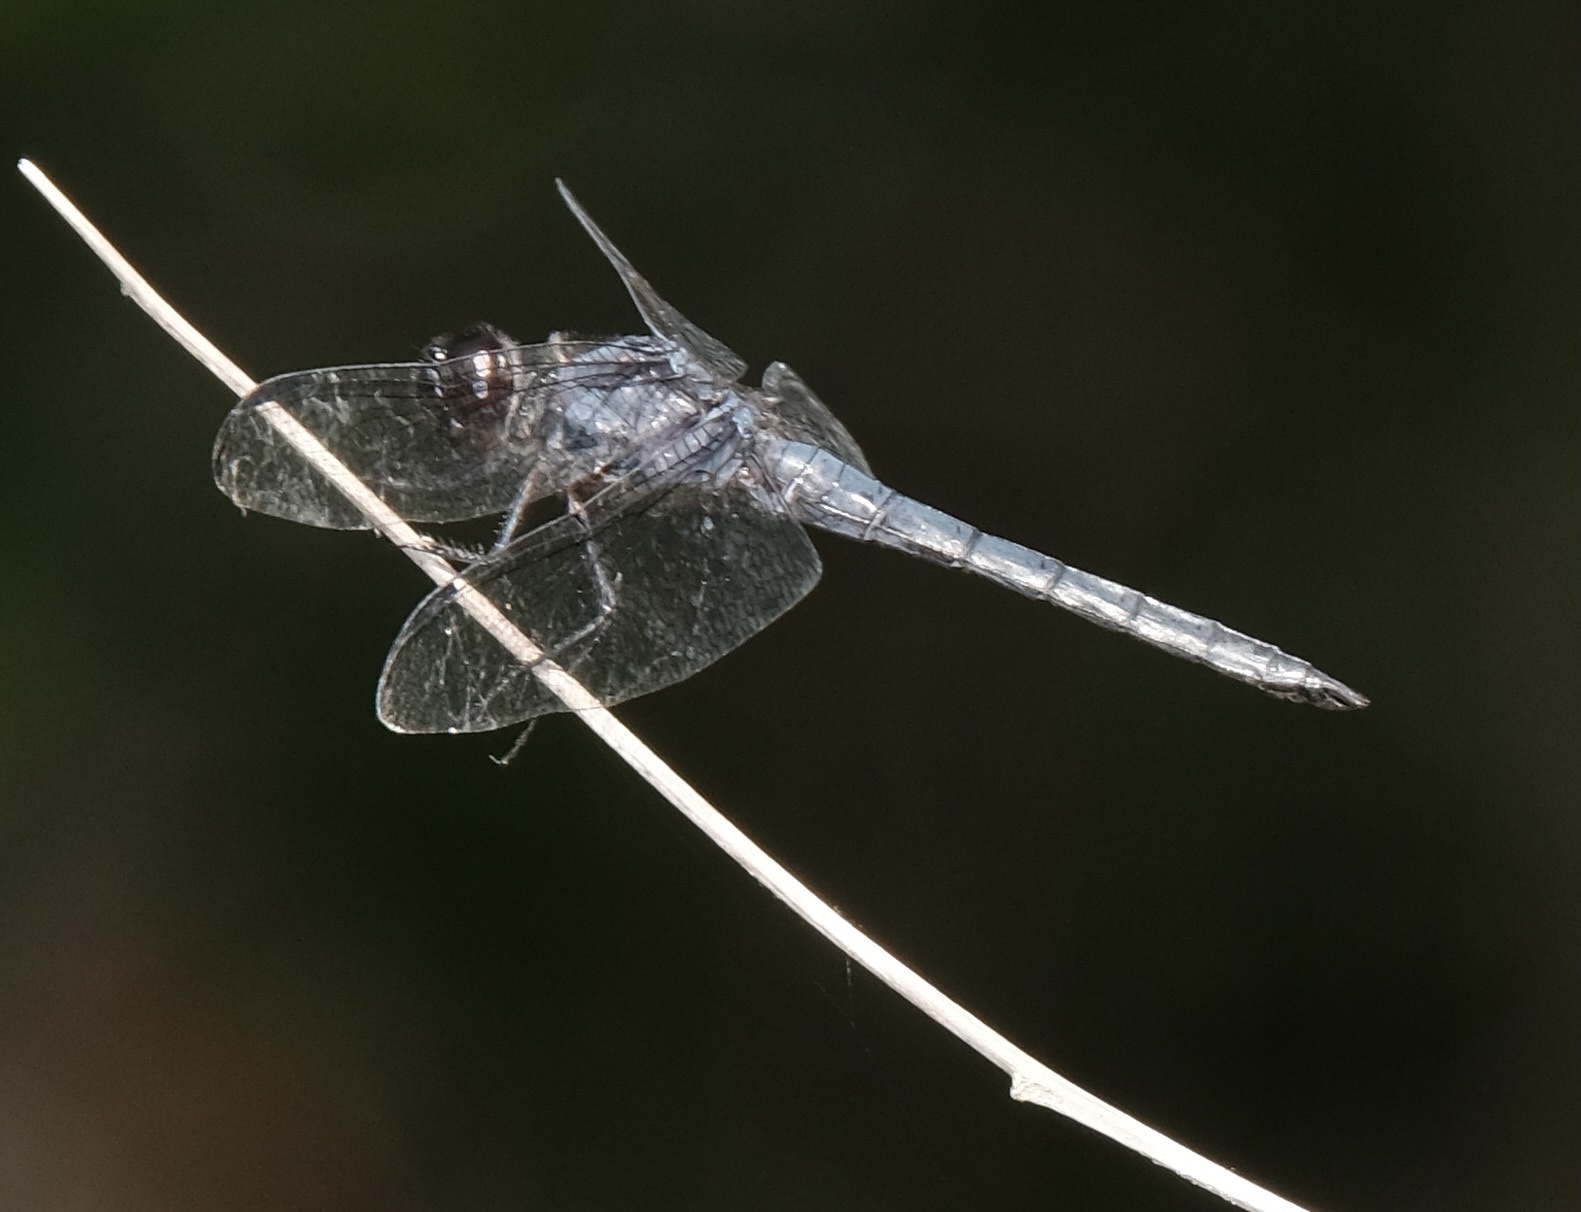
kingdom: Animalia
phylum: Arthropoda
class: Insecta
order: Odonata
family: Libellulidae
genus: Libellula
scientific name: Libellula incesta
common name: Slaty skimmer
